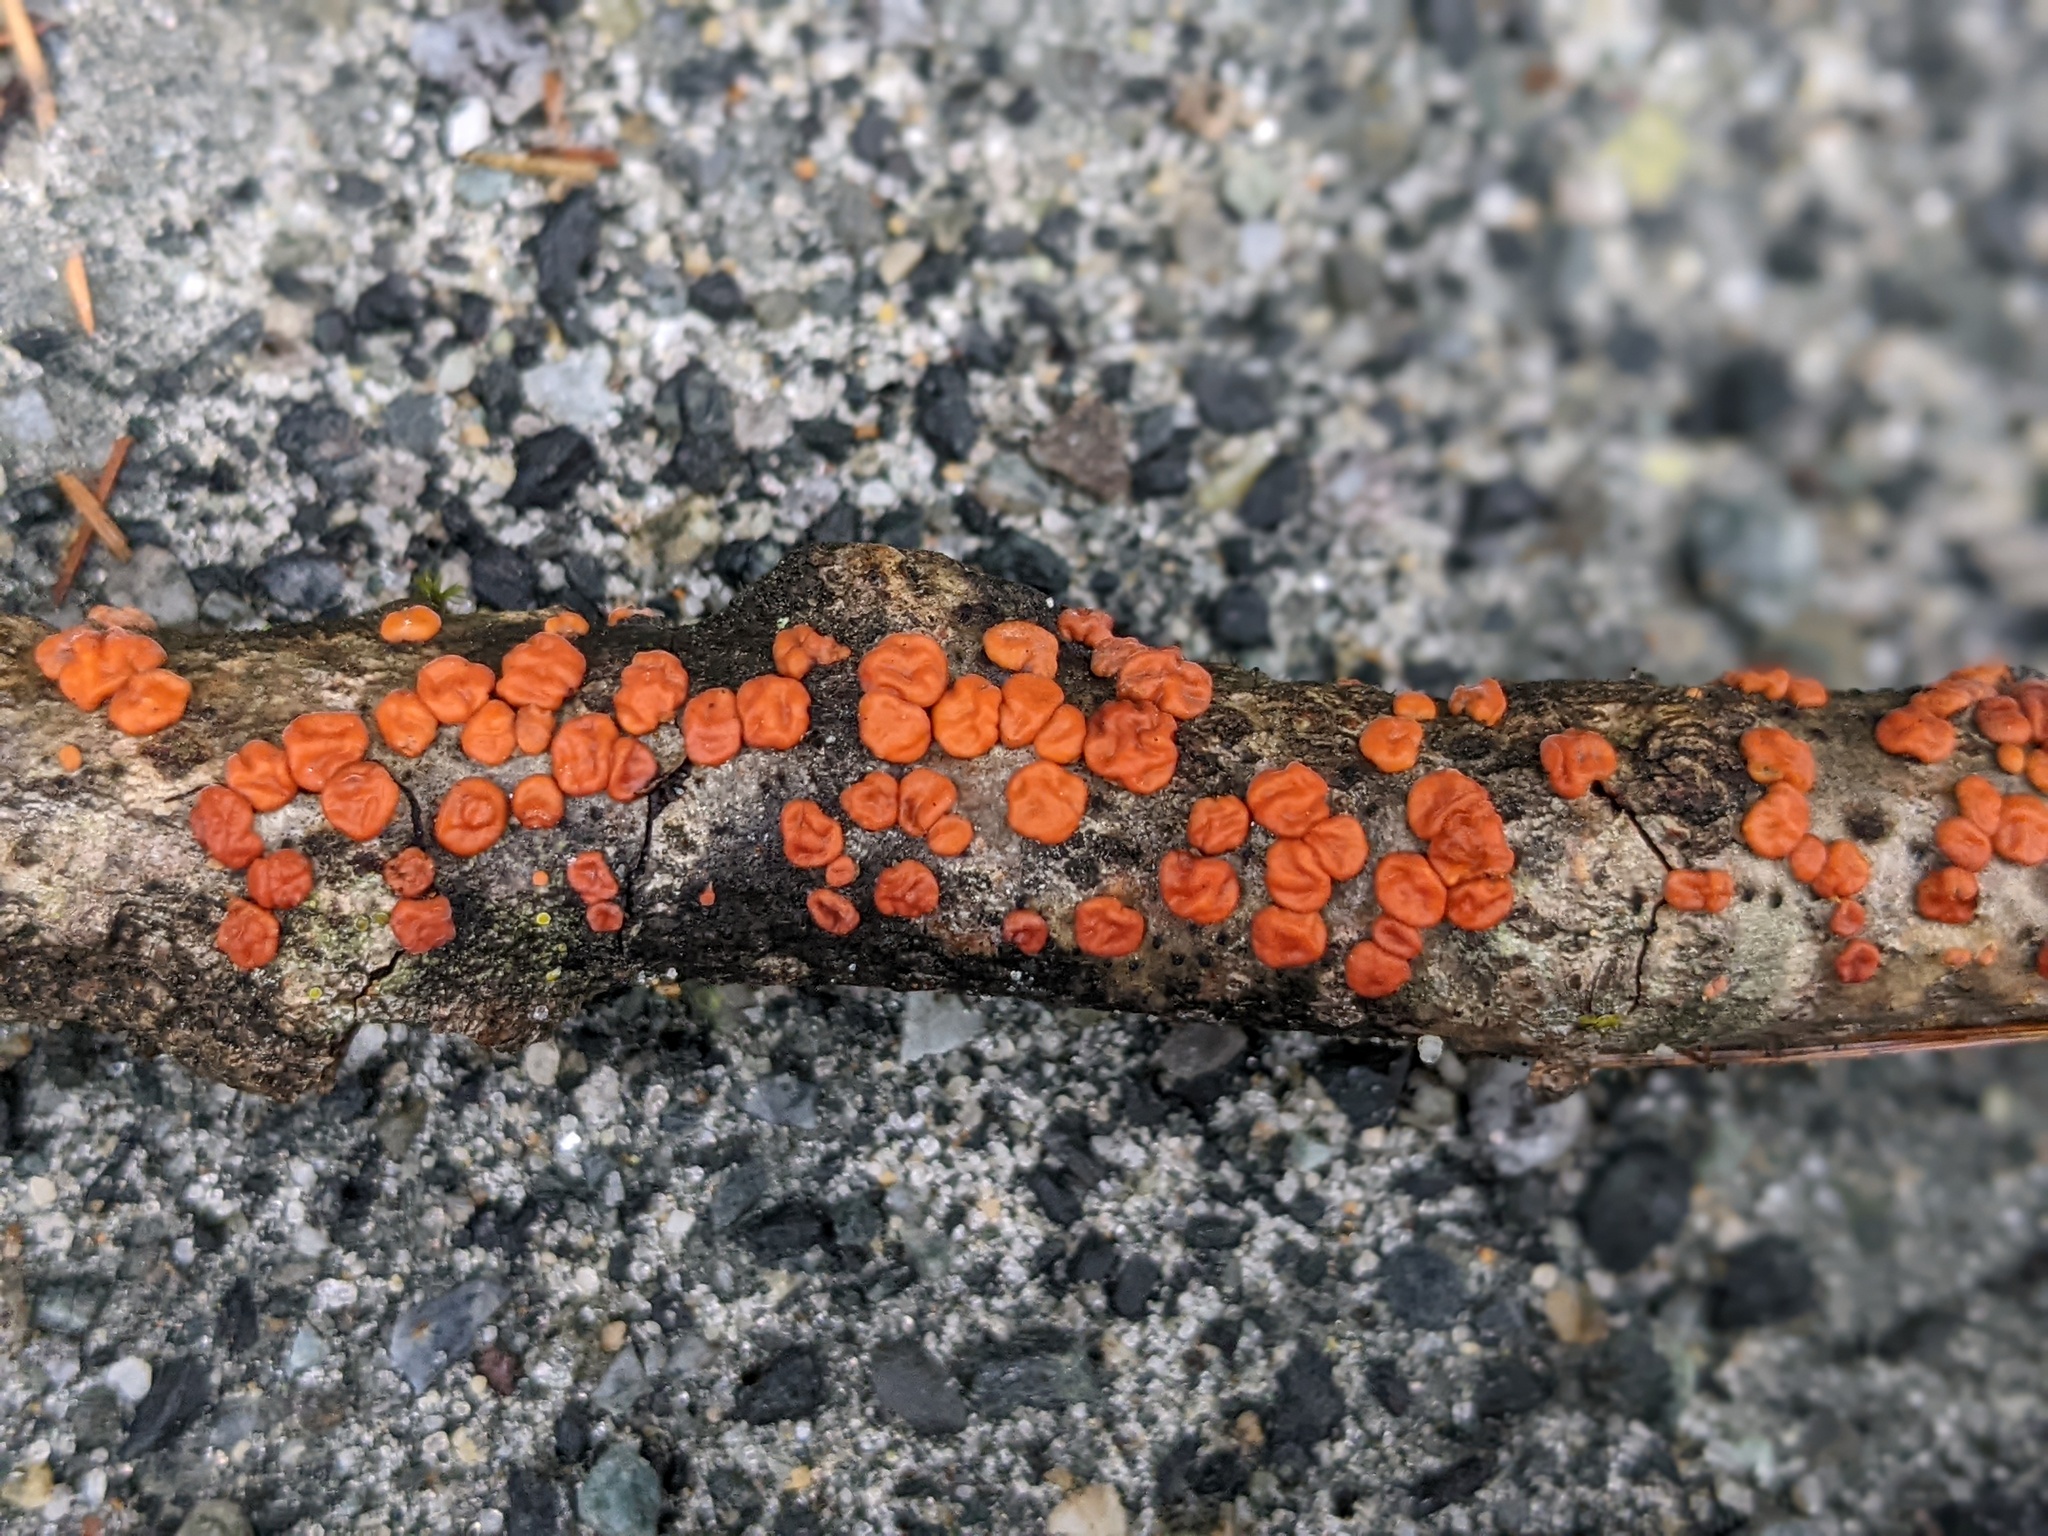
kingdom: Fungi
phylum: Basidiomycota
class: Agaricomycetes
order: Russulales
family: Peniophoraceae
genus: Peniophora
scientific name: Peniophora rufa
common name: Red tree brain fungus
